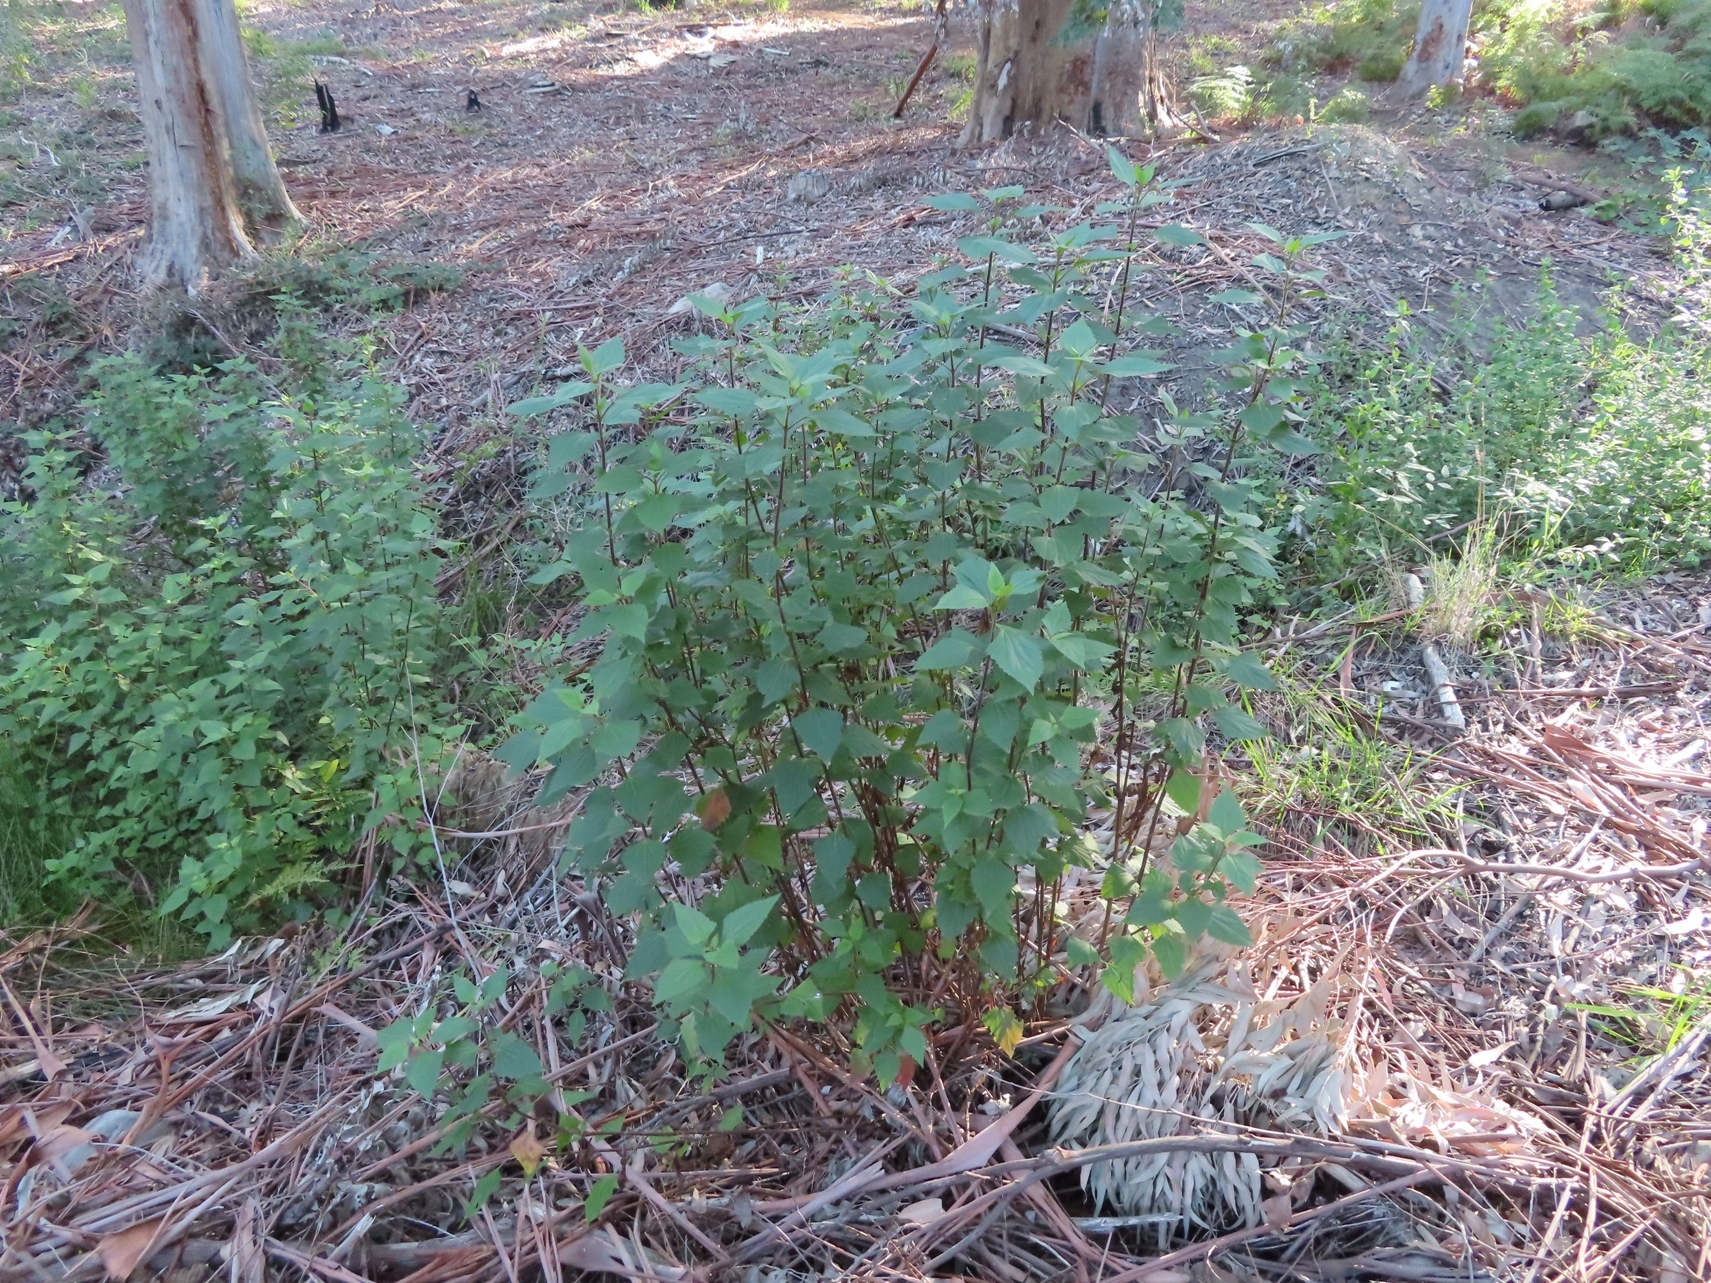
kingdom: Plantae
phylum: Tracheophyta
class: Magnoliopsida
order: Asterales
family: Asteraceae
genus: Ageratina
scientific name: Ageratina adenophora
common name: Sticky snakeroot
